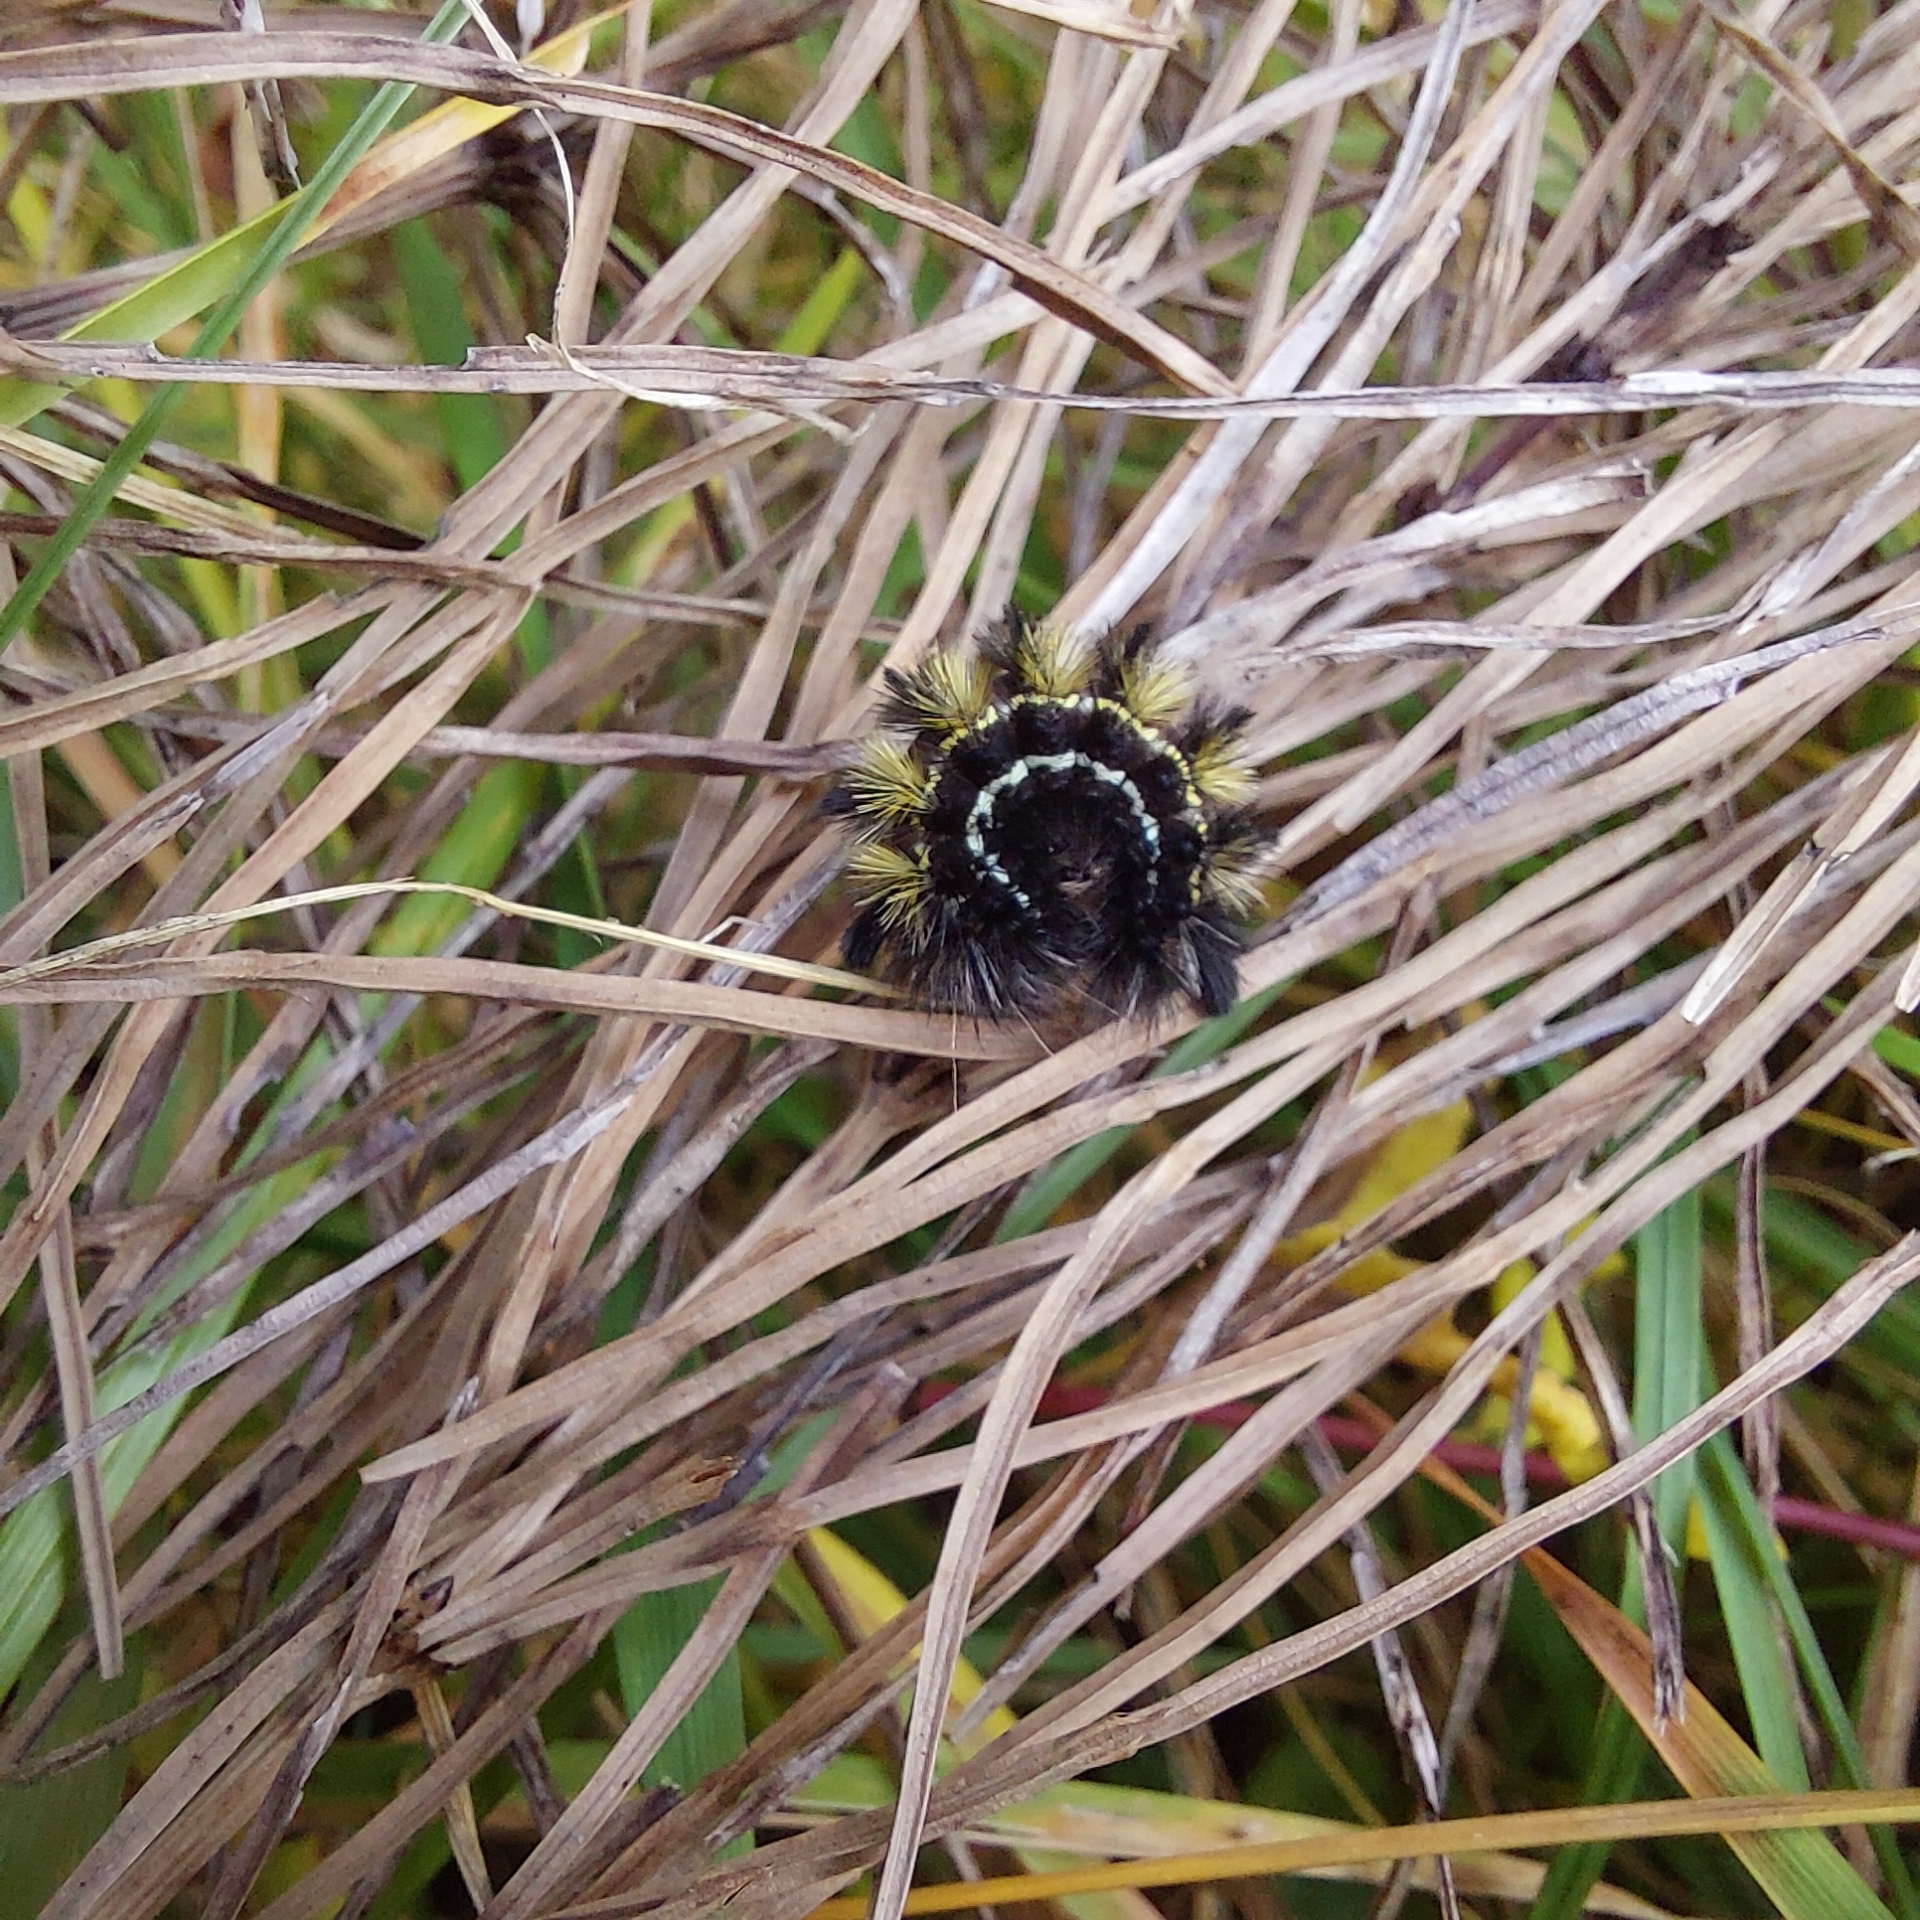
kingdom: Animalia
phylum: Arthropoda
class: Insecta
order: Lepidoptera
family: Erebidae
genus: Ctenucha
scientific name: Ctenucha virginica
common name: Virginia ctenucha moth
